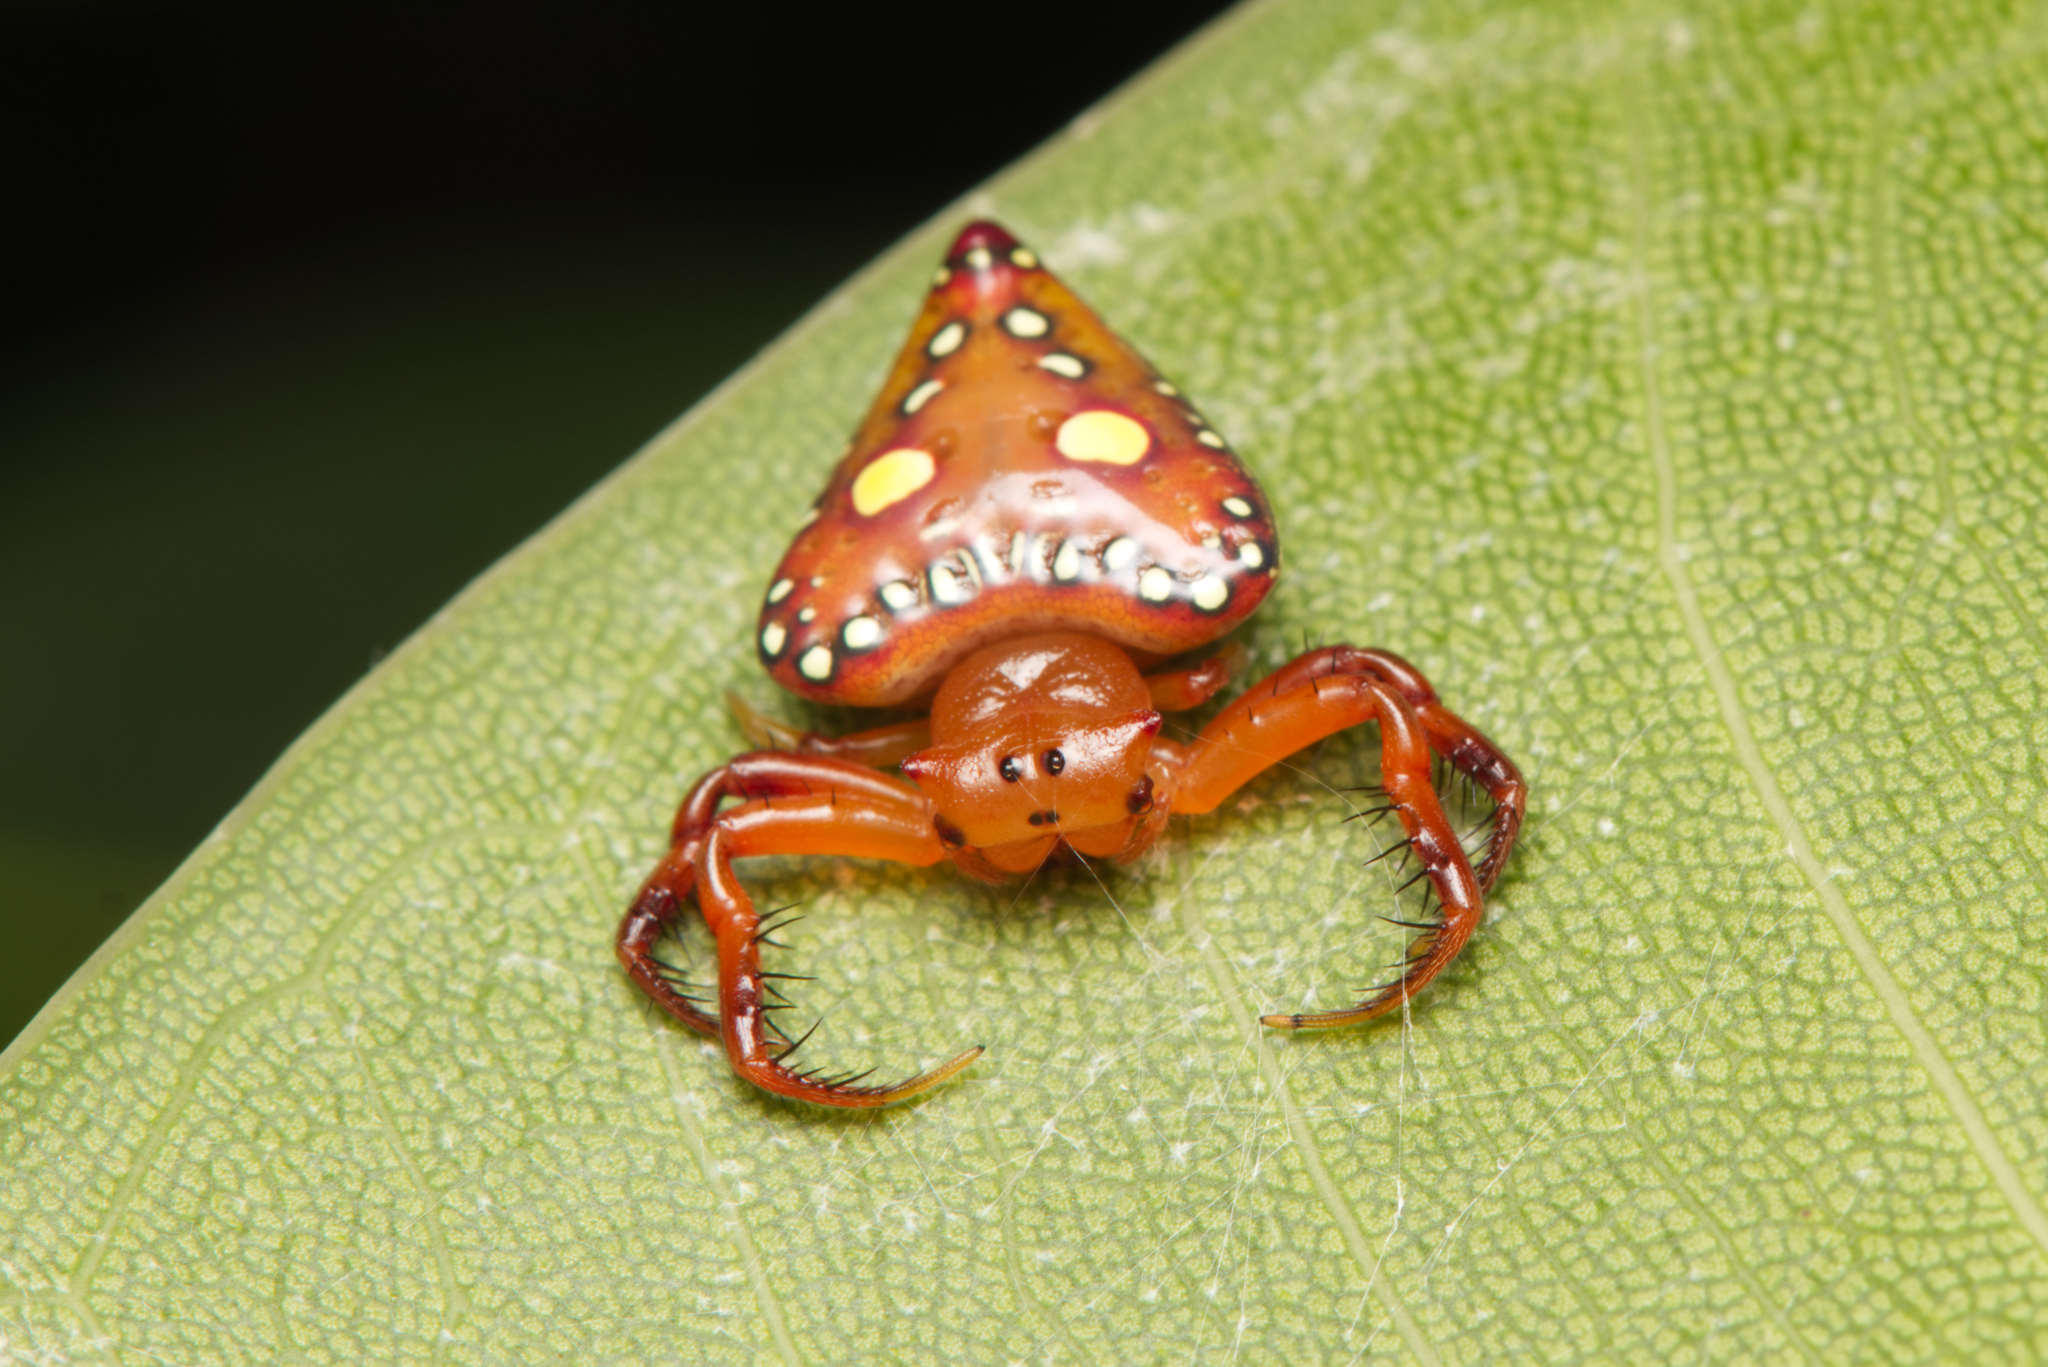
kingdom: Animalia
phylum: Arthropoda
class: Arachnida
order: Araneae
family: Arkyidae
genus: Arkys
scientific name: Arkys lancearius
